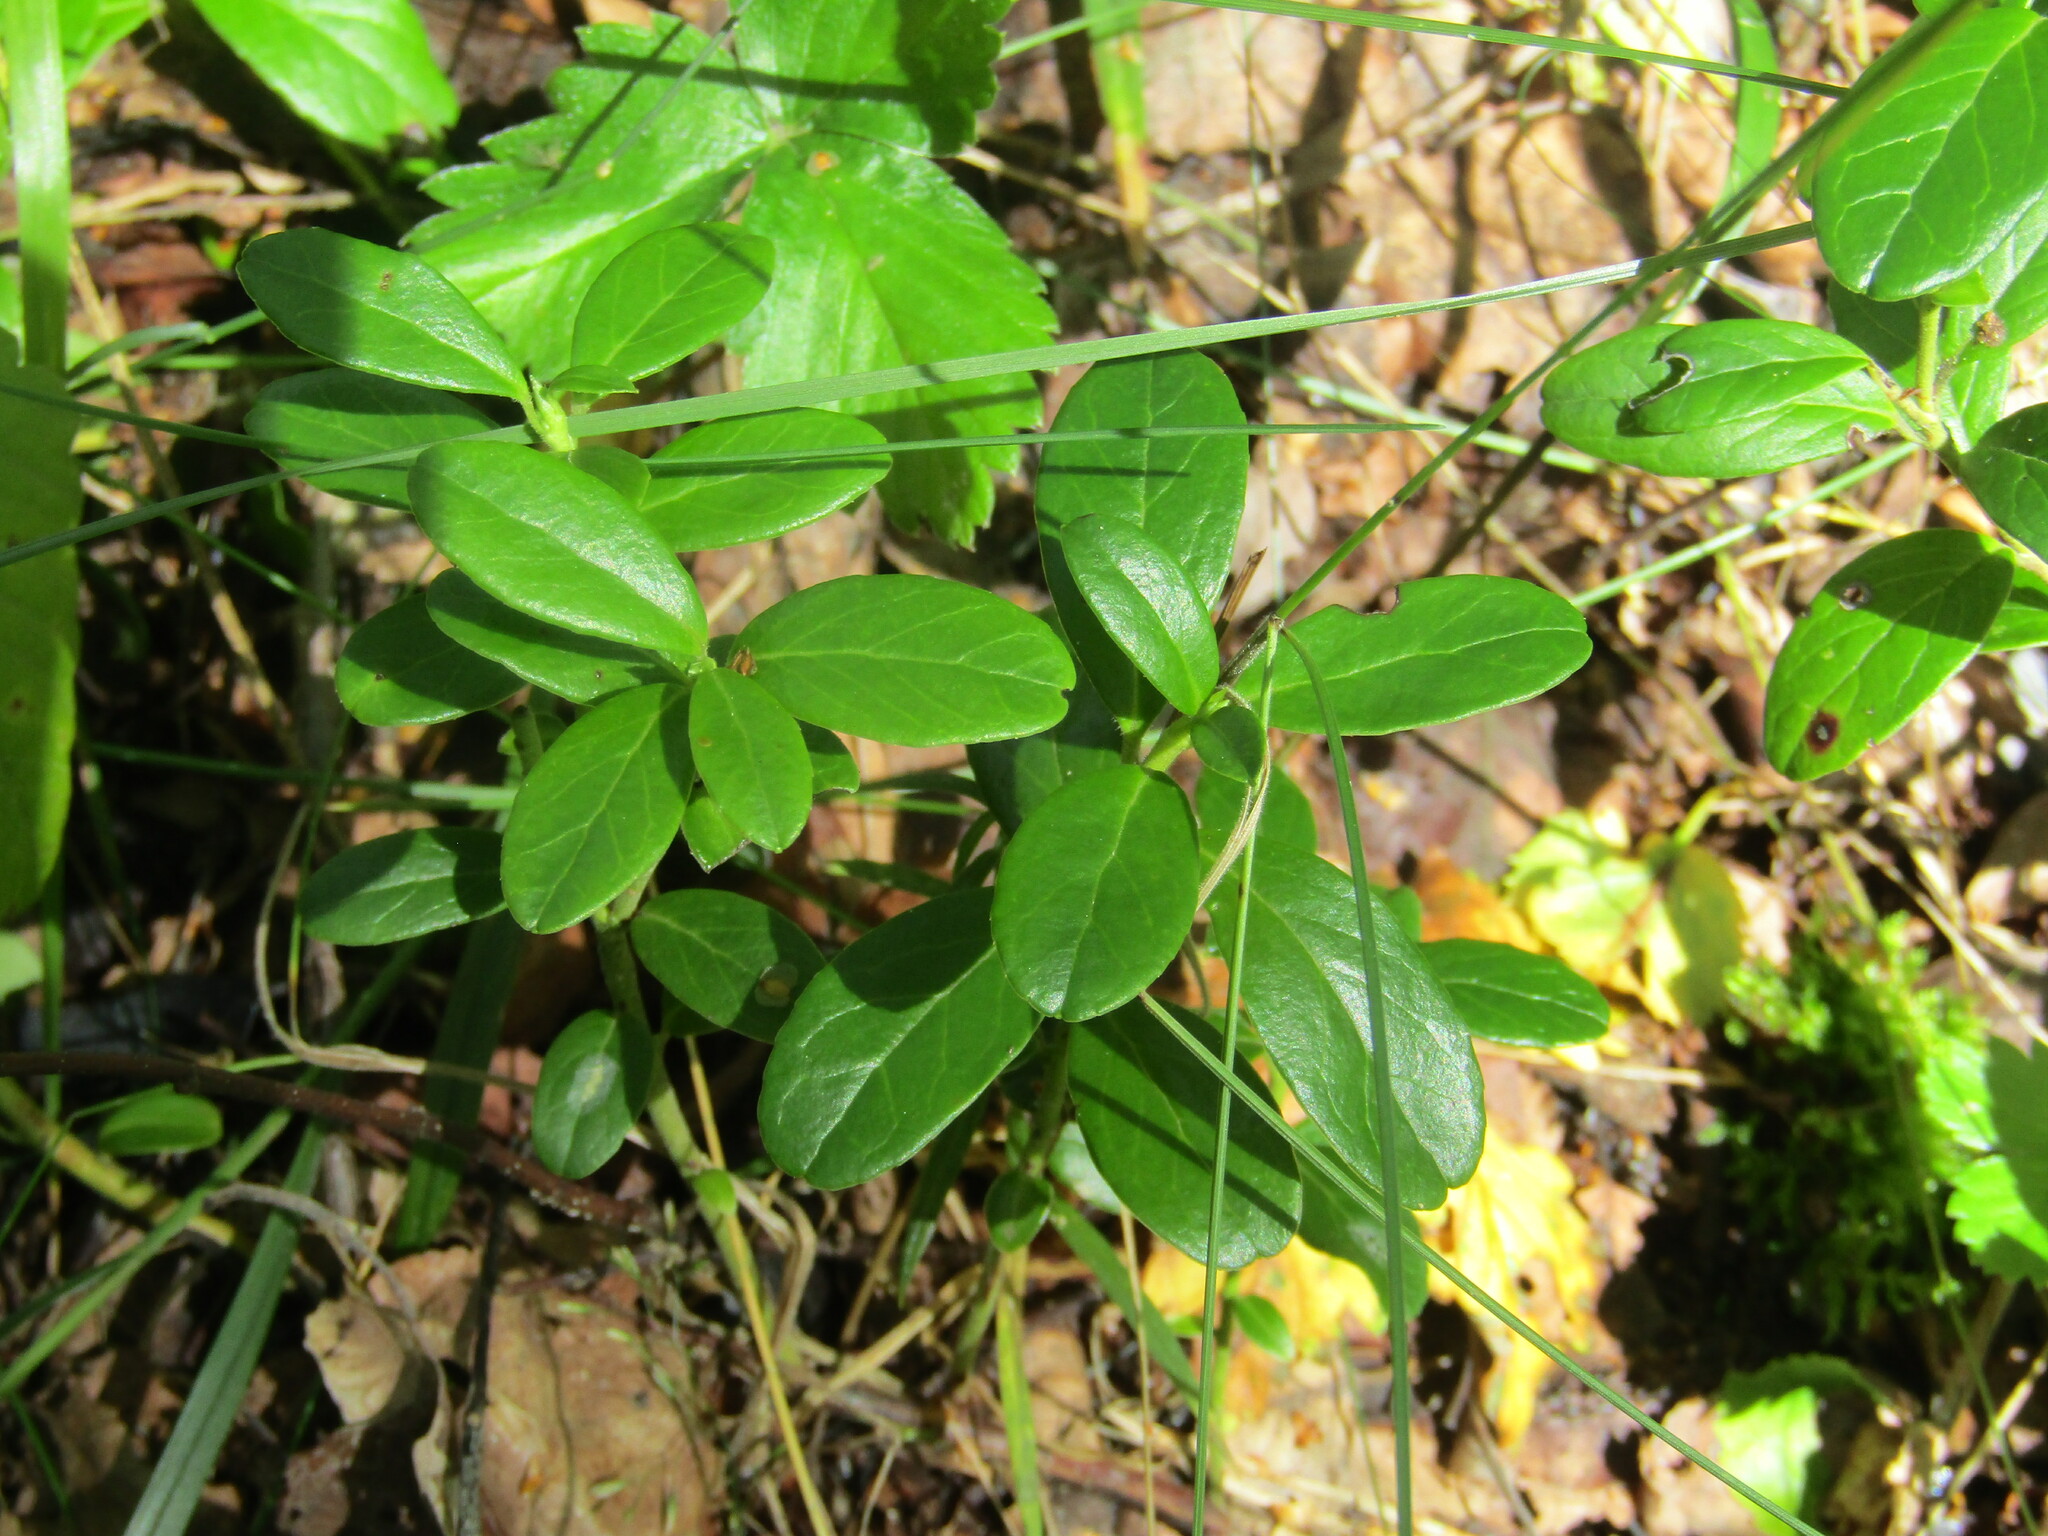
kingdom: Plantae
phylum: Tracheophyta
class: Magnoliopsida
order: Ericales
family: Ericaceae
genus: Vaccinium
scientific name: Vaccinium vitis-idaea
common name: Cowberry
